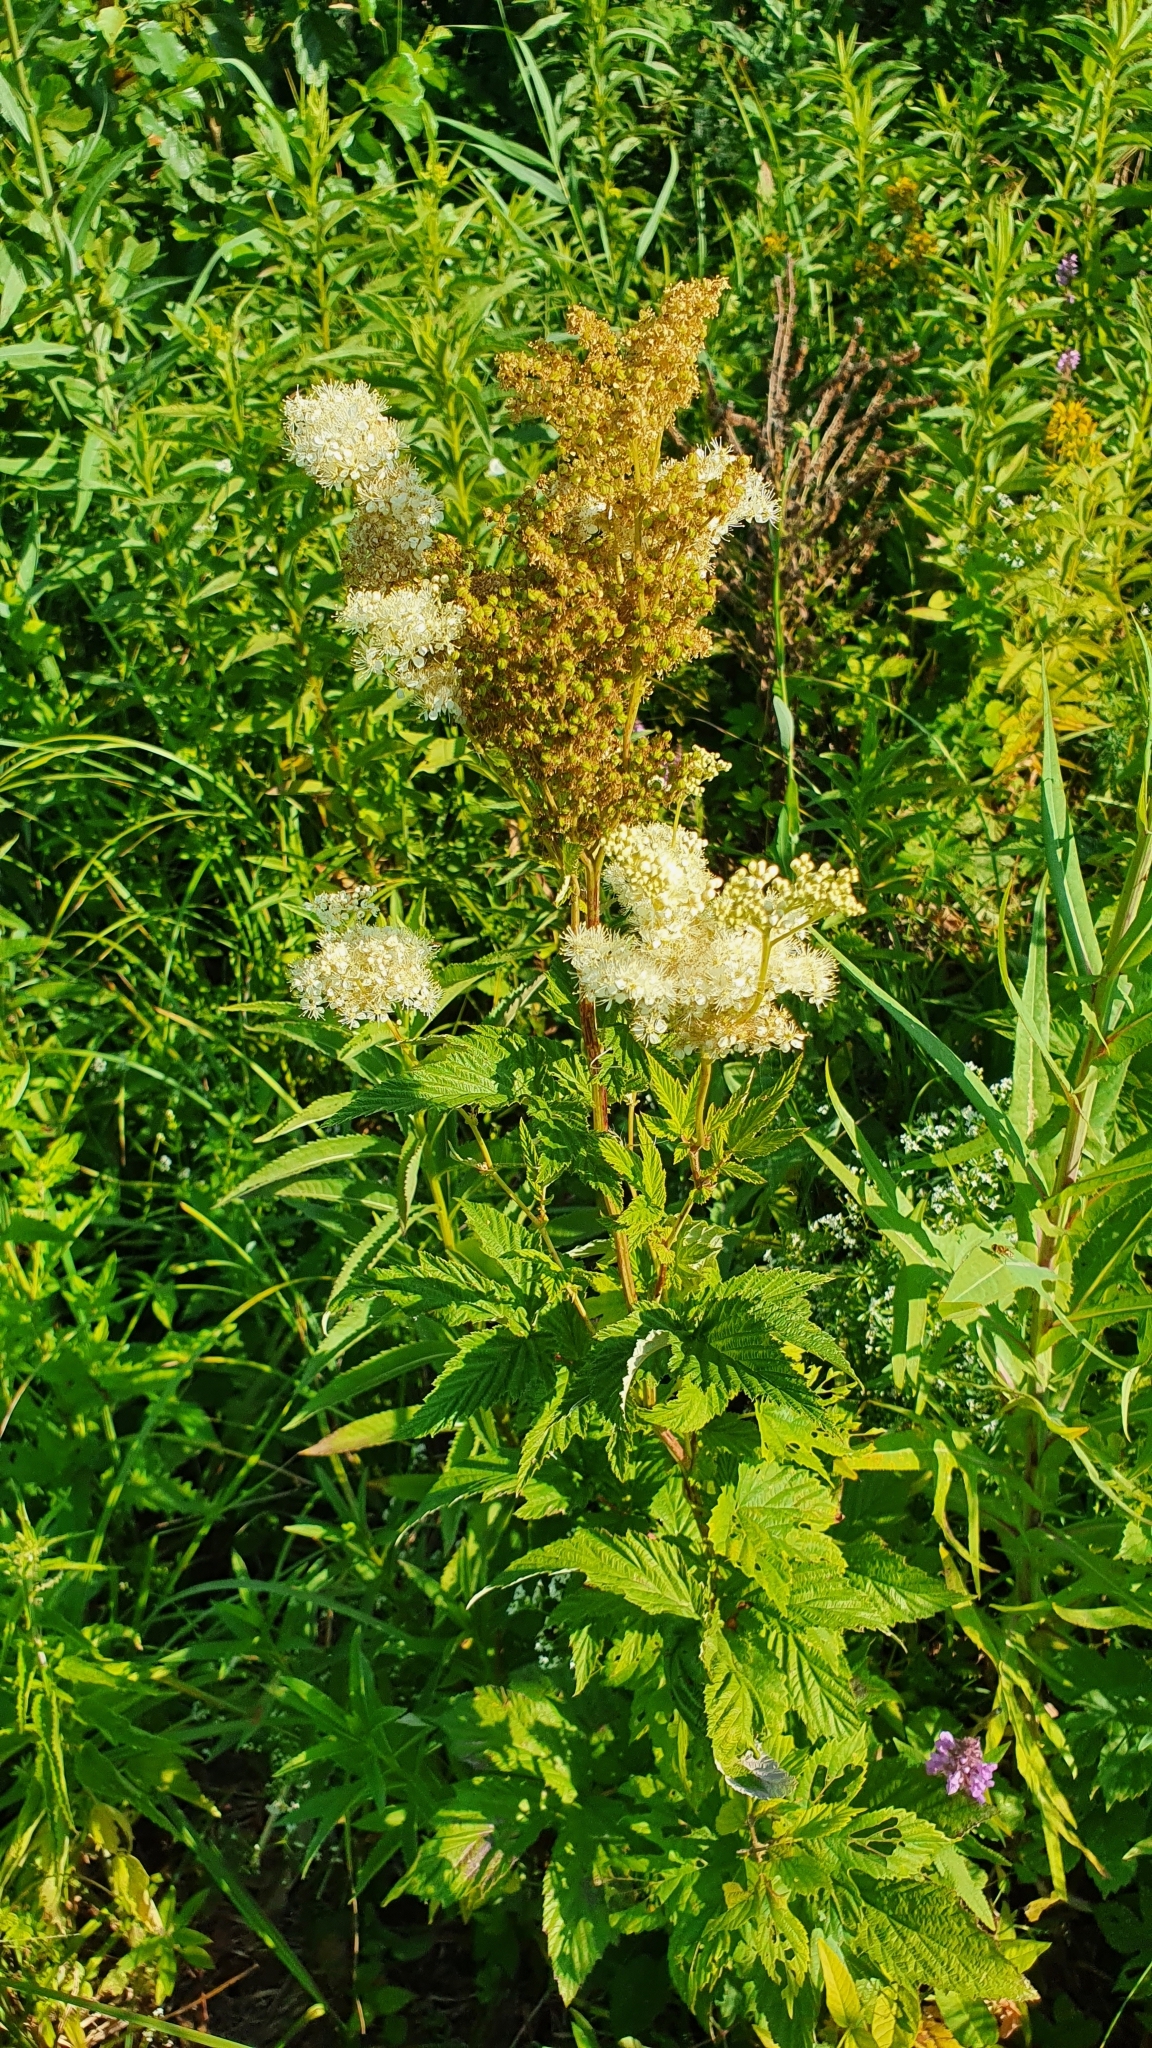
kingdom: Plantae
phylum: Tracheophyta
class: Magnoliopsida
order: Rosales
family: Rosaceae
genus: Filipendula
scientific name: Filipendula ulmaria
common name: Meadowsweet
